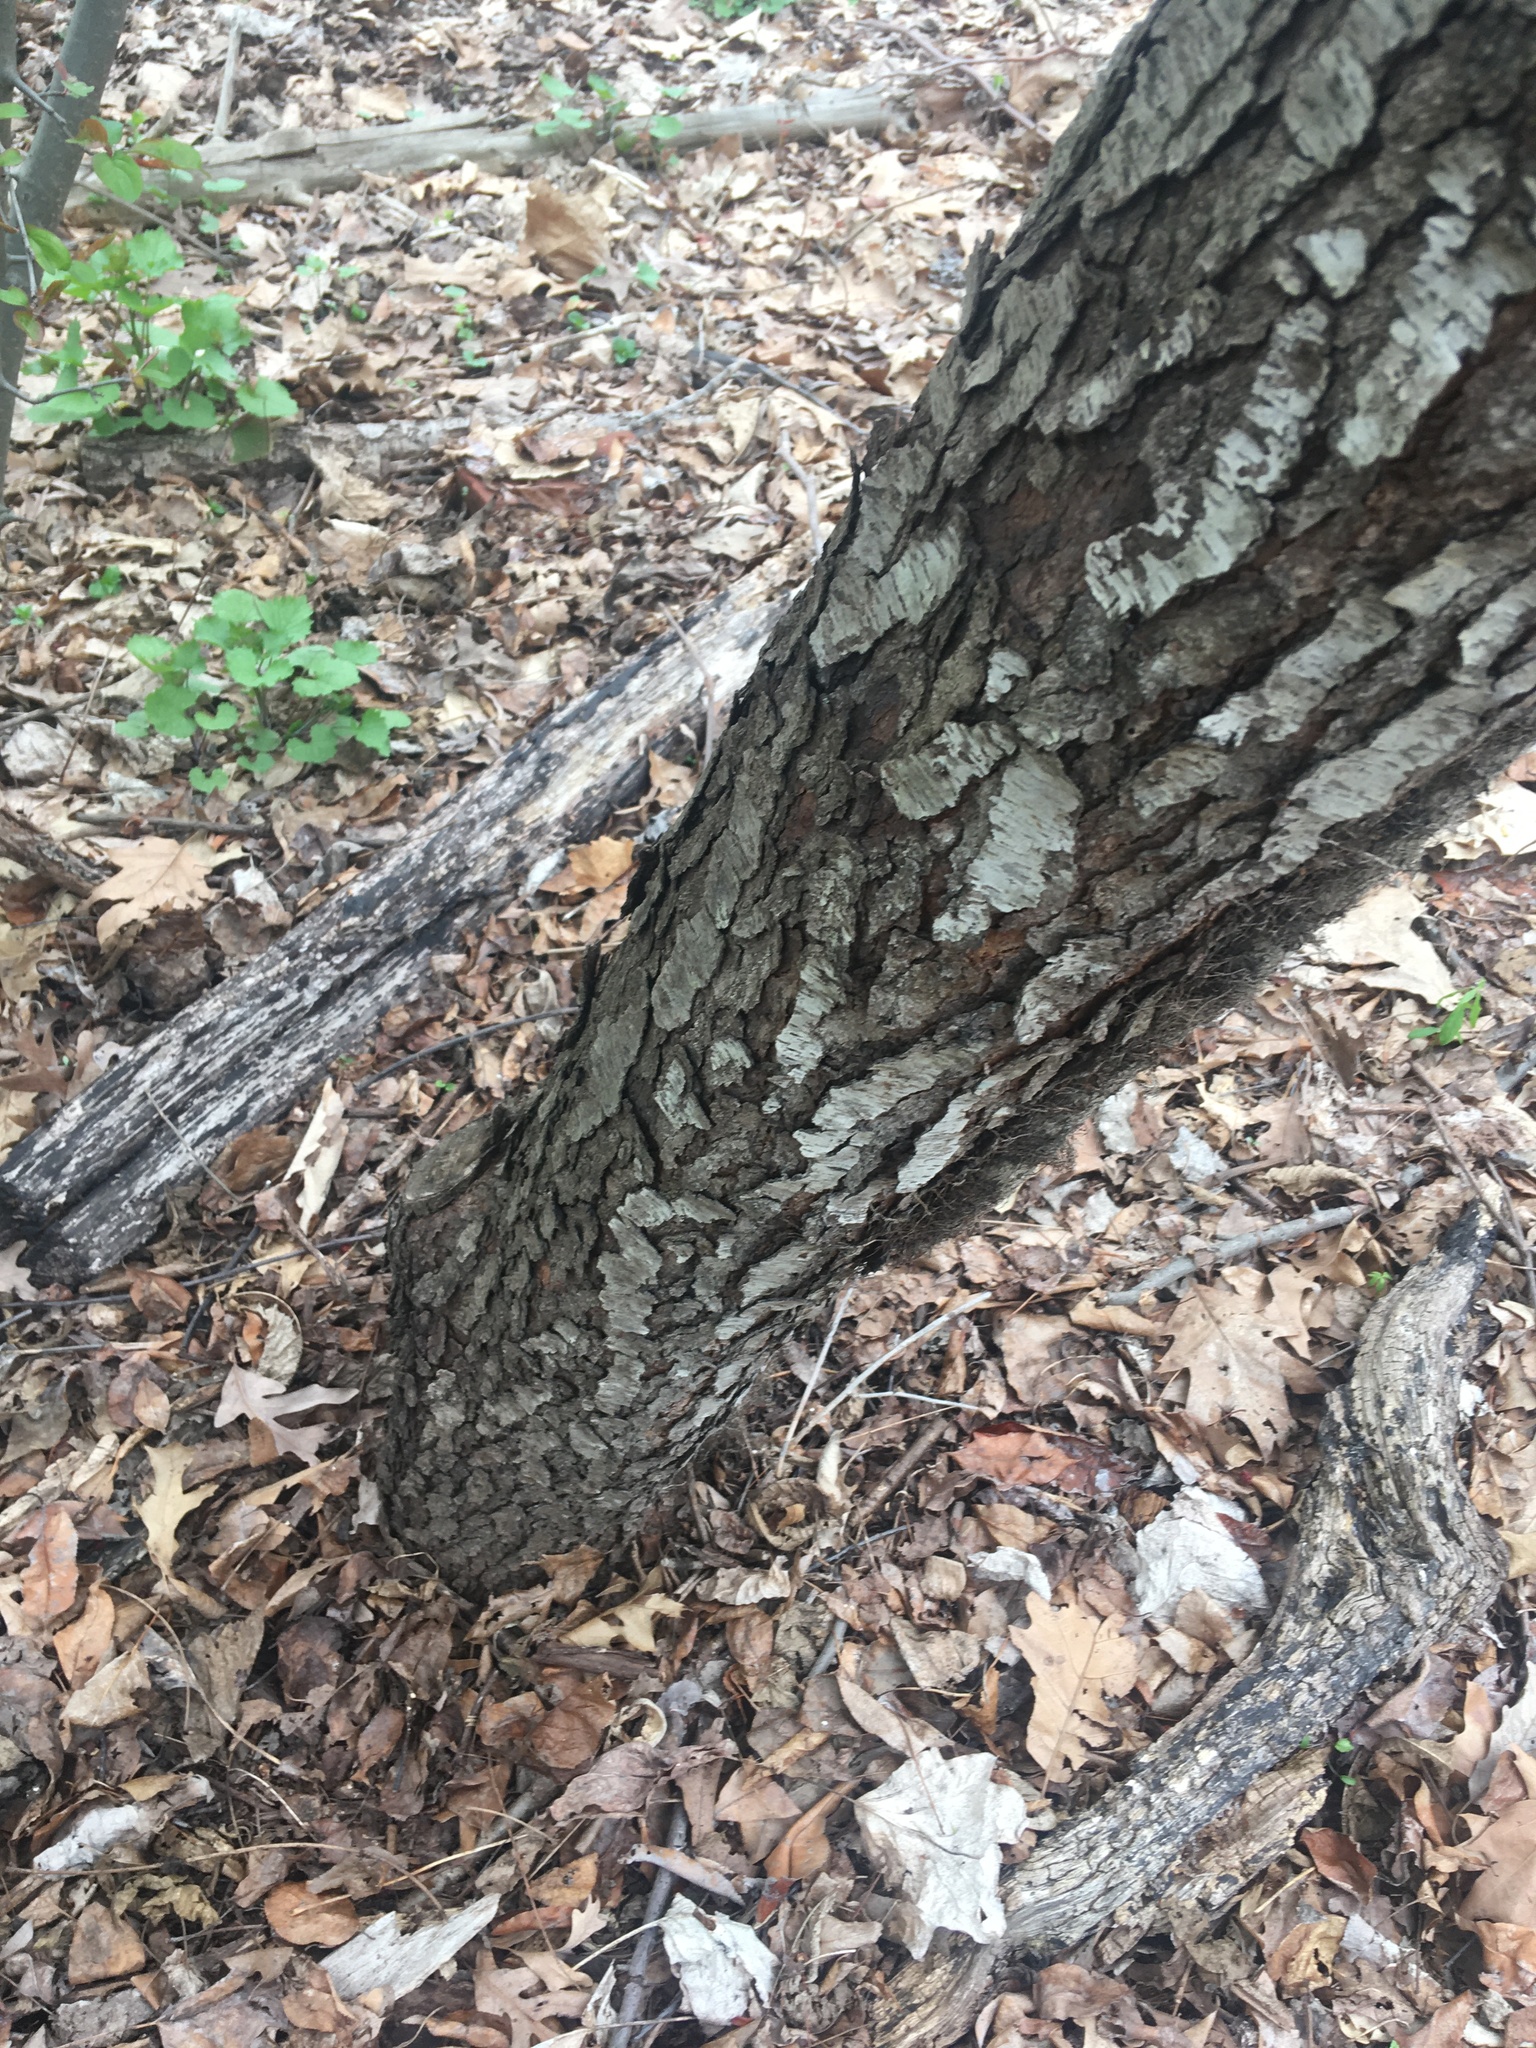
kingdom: Plantae
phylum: Tracheophyta
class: Magnoliopsida
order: Rosales
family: Rosaceae
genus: Prunus
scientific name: Prunus serotina
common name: Black cherry
